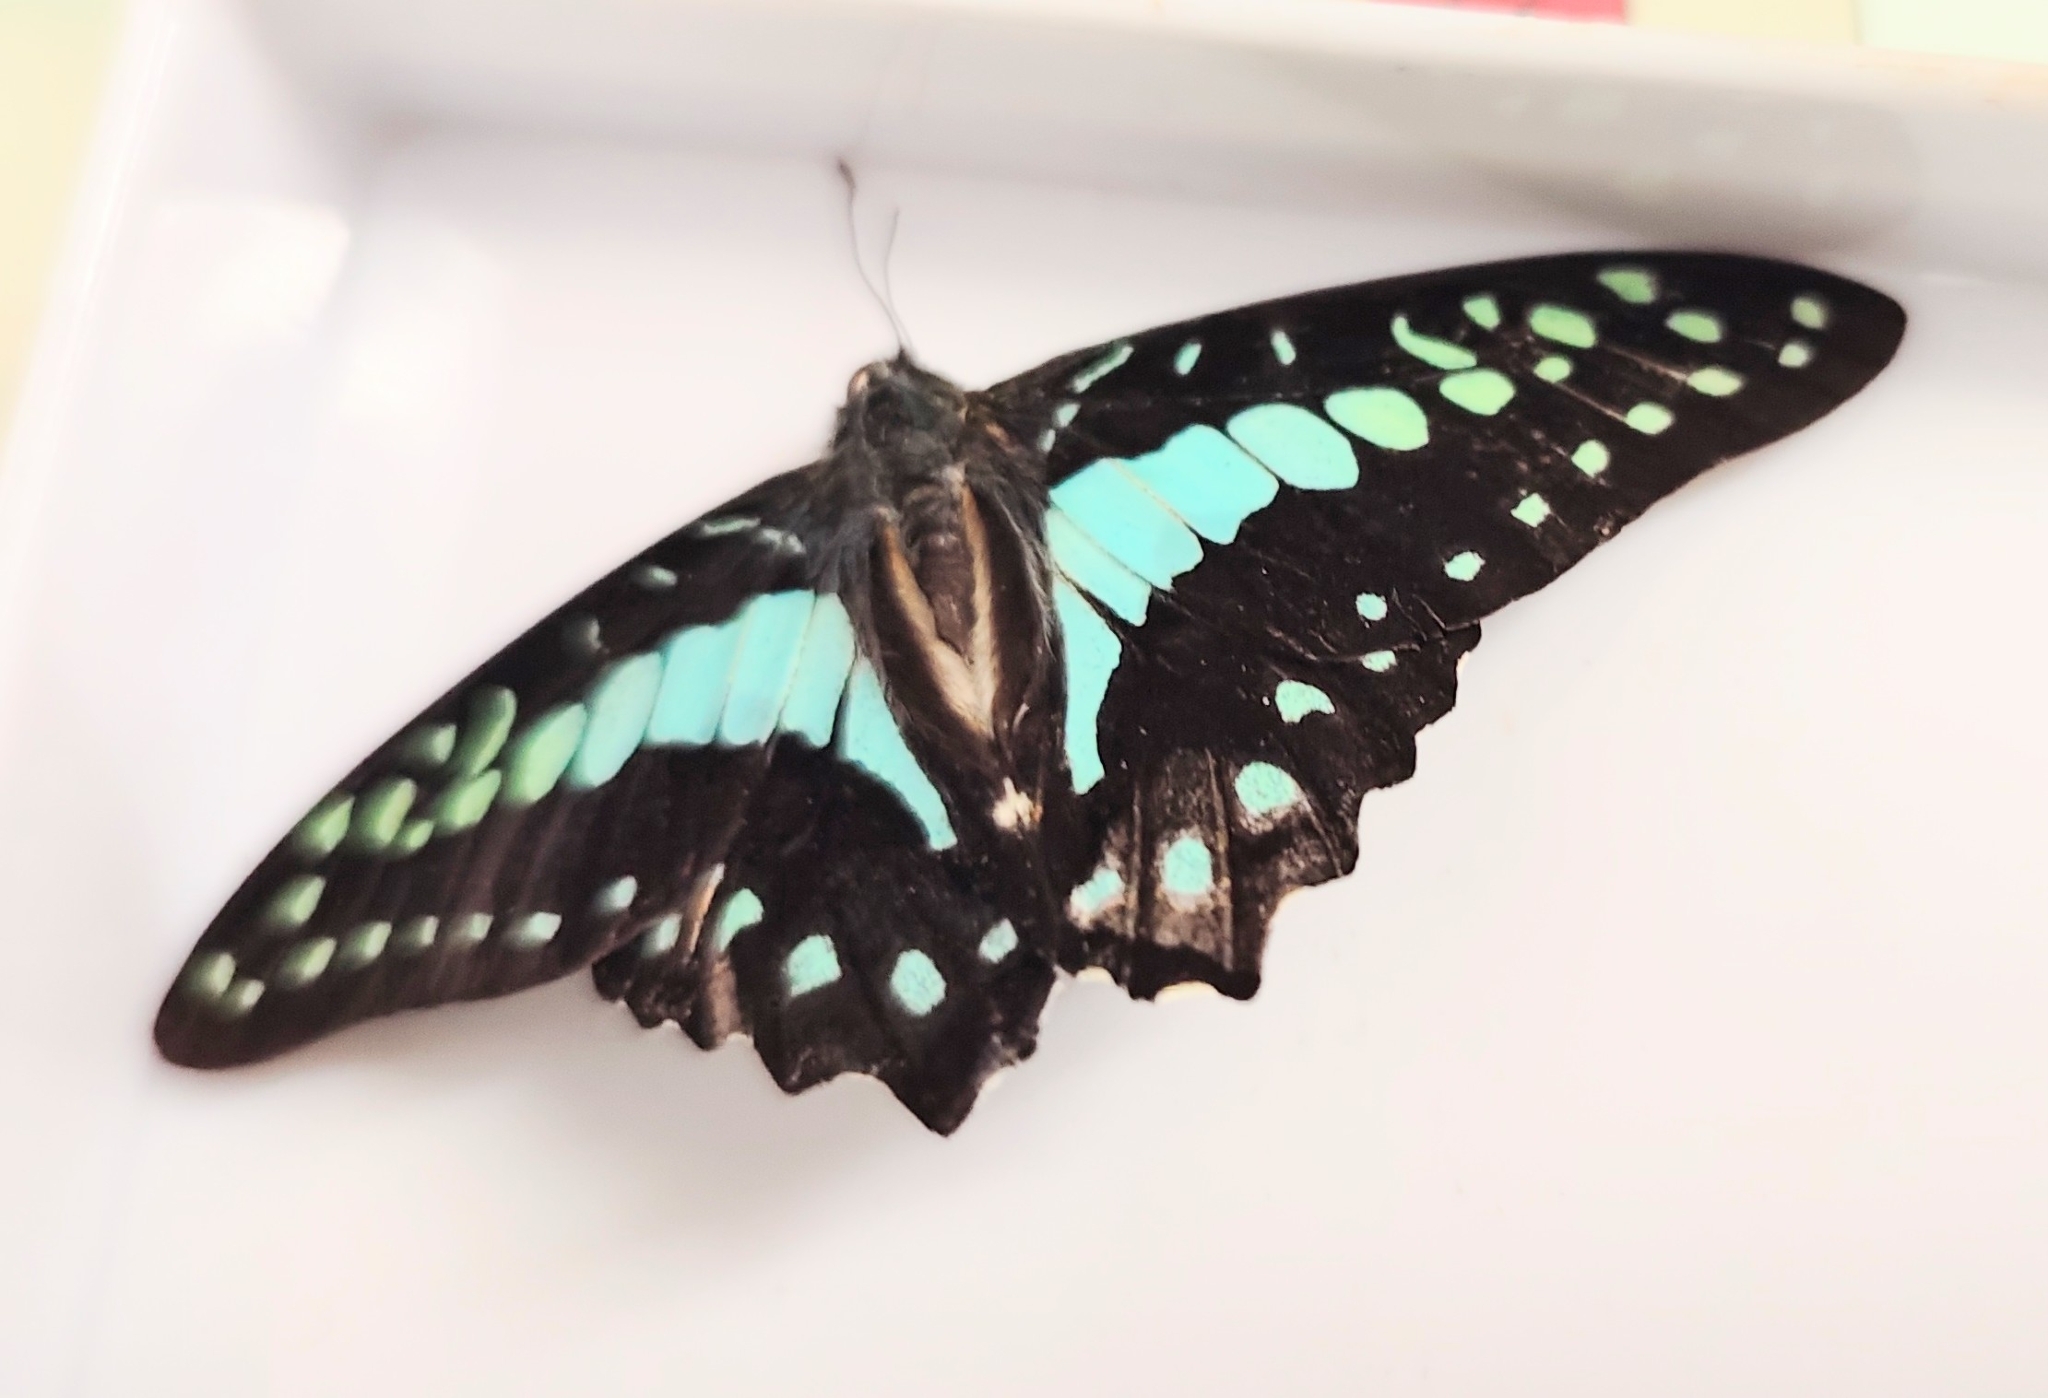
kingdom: Animalia
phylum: Arthropoda
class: Insecta
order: Lepidoptera
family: Papilionidae
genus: Graphium
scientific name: Graphium doson
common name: Common jay
